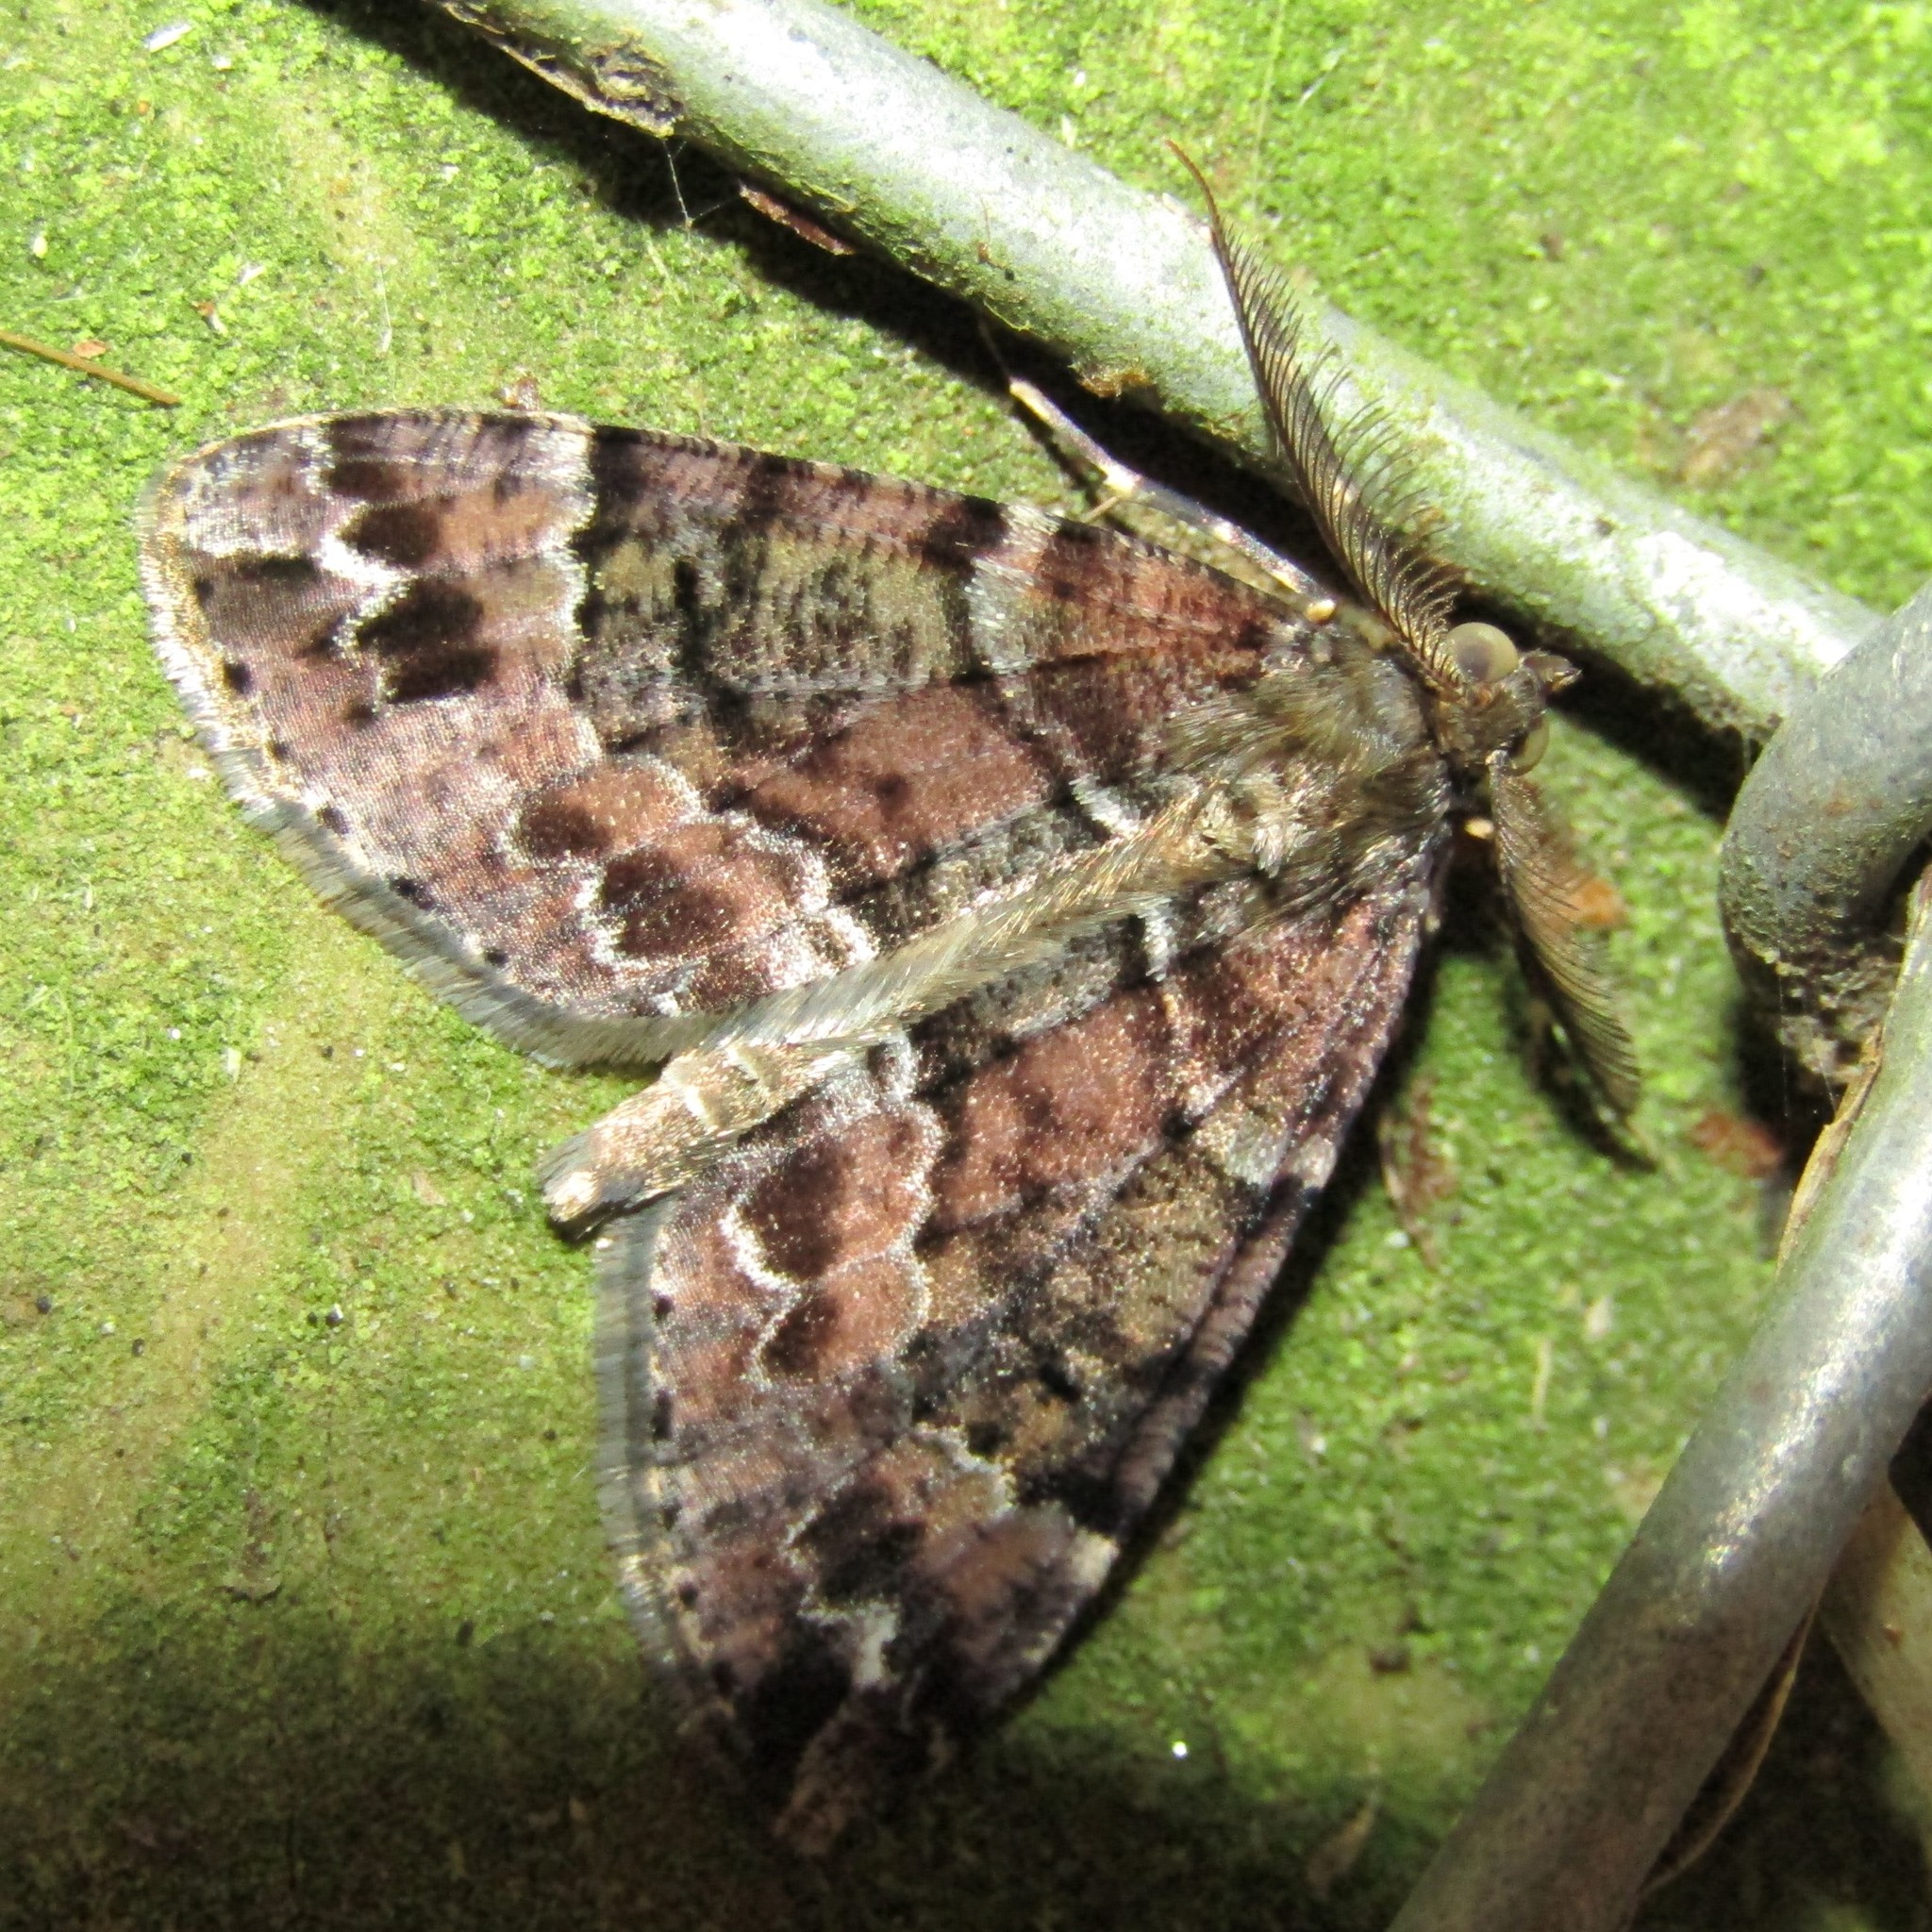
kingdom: Animalia
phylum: Arthropoda
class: Insecta
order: Lepidoptera
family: Geometridae
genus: Pseudocoremia
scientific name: Pseudocoremia productata
